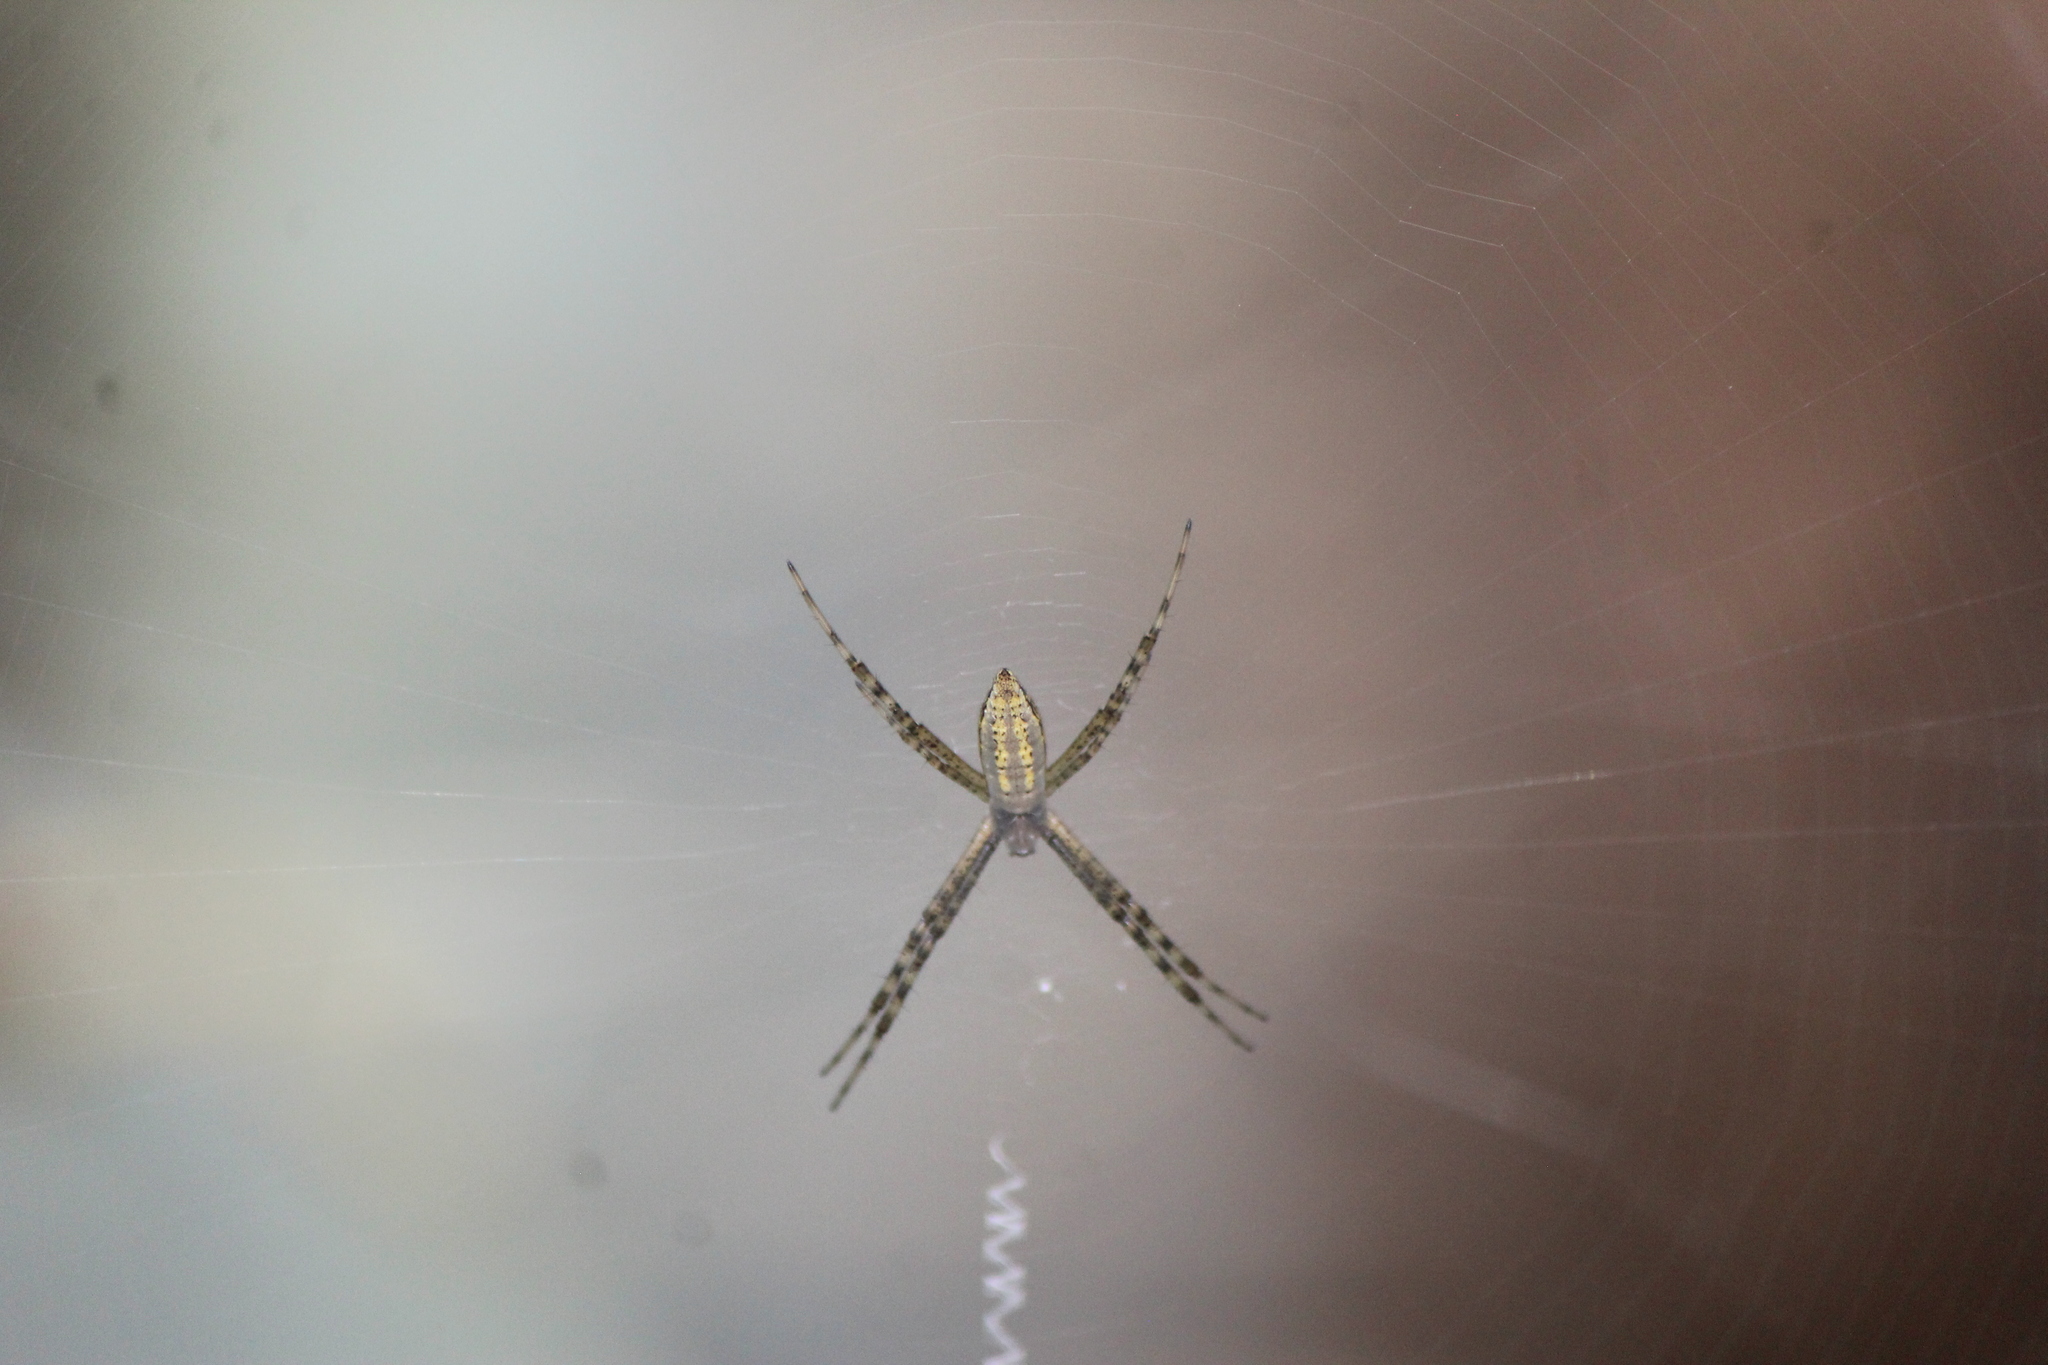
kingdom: Animalia
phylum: Arthropoda
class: Arachnida
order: Araneae
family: Araneidae
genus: Argiope
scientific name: Argiope trifasciata
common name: Banded garden spider
